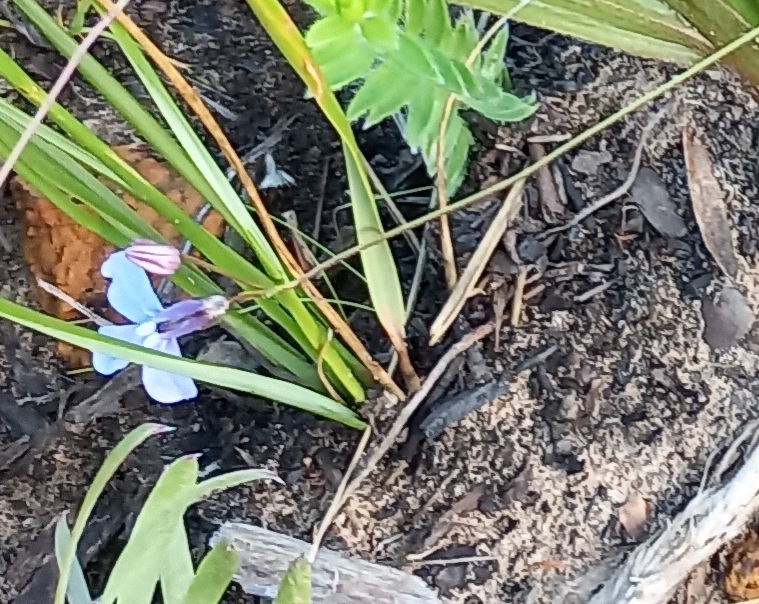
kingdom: Plantae
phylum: Tracheophyta
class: Magnoliopsida
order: Asterales
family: Campanulaceae
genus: Lobelia
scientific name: Lobelia setacea
